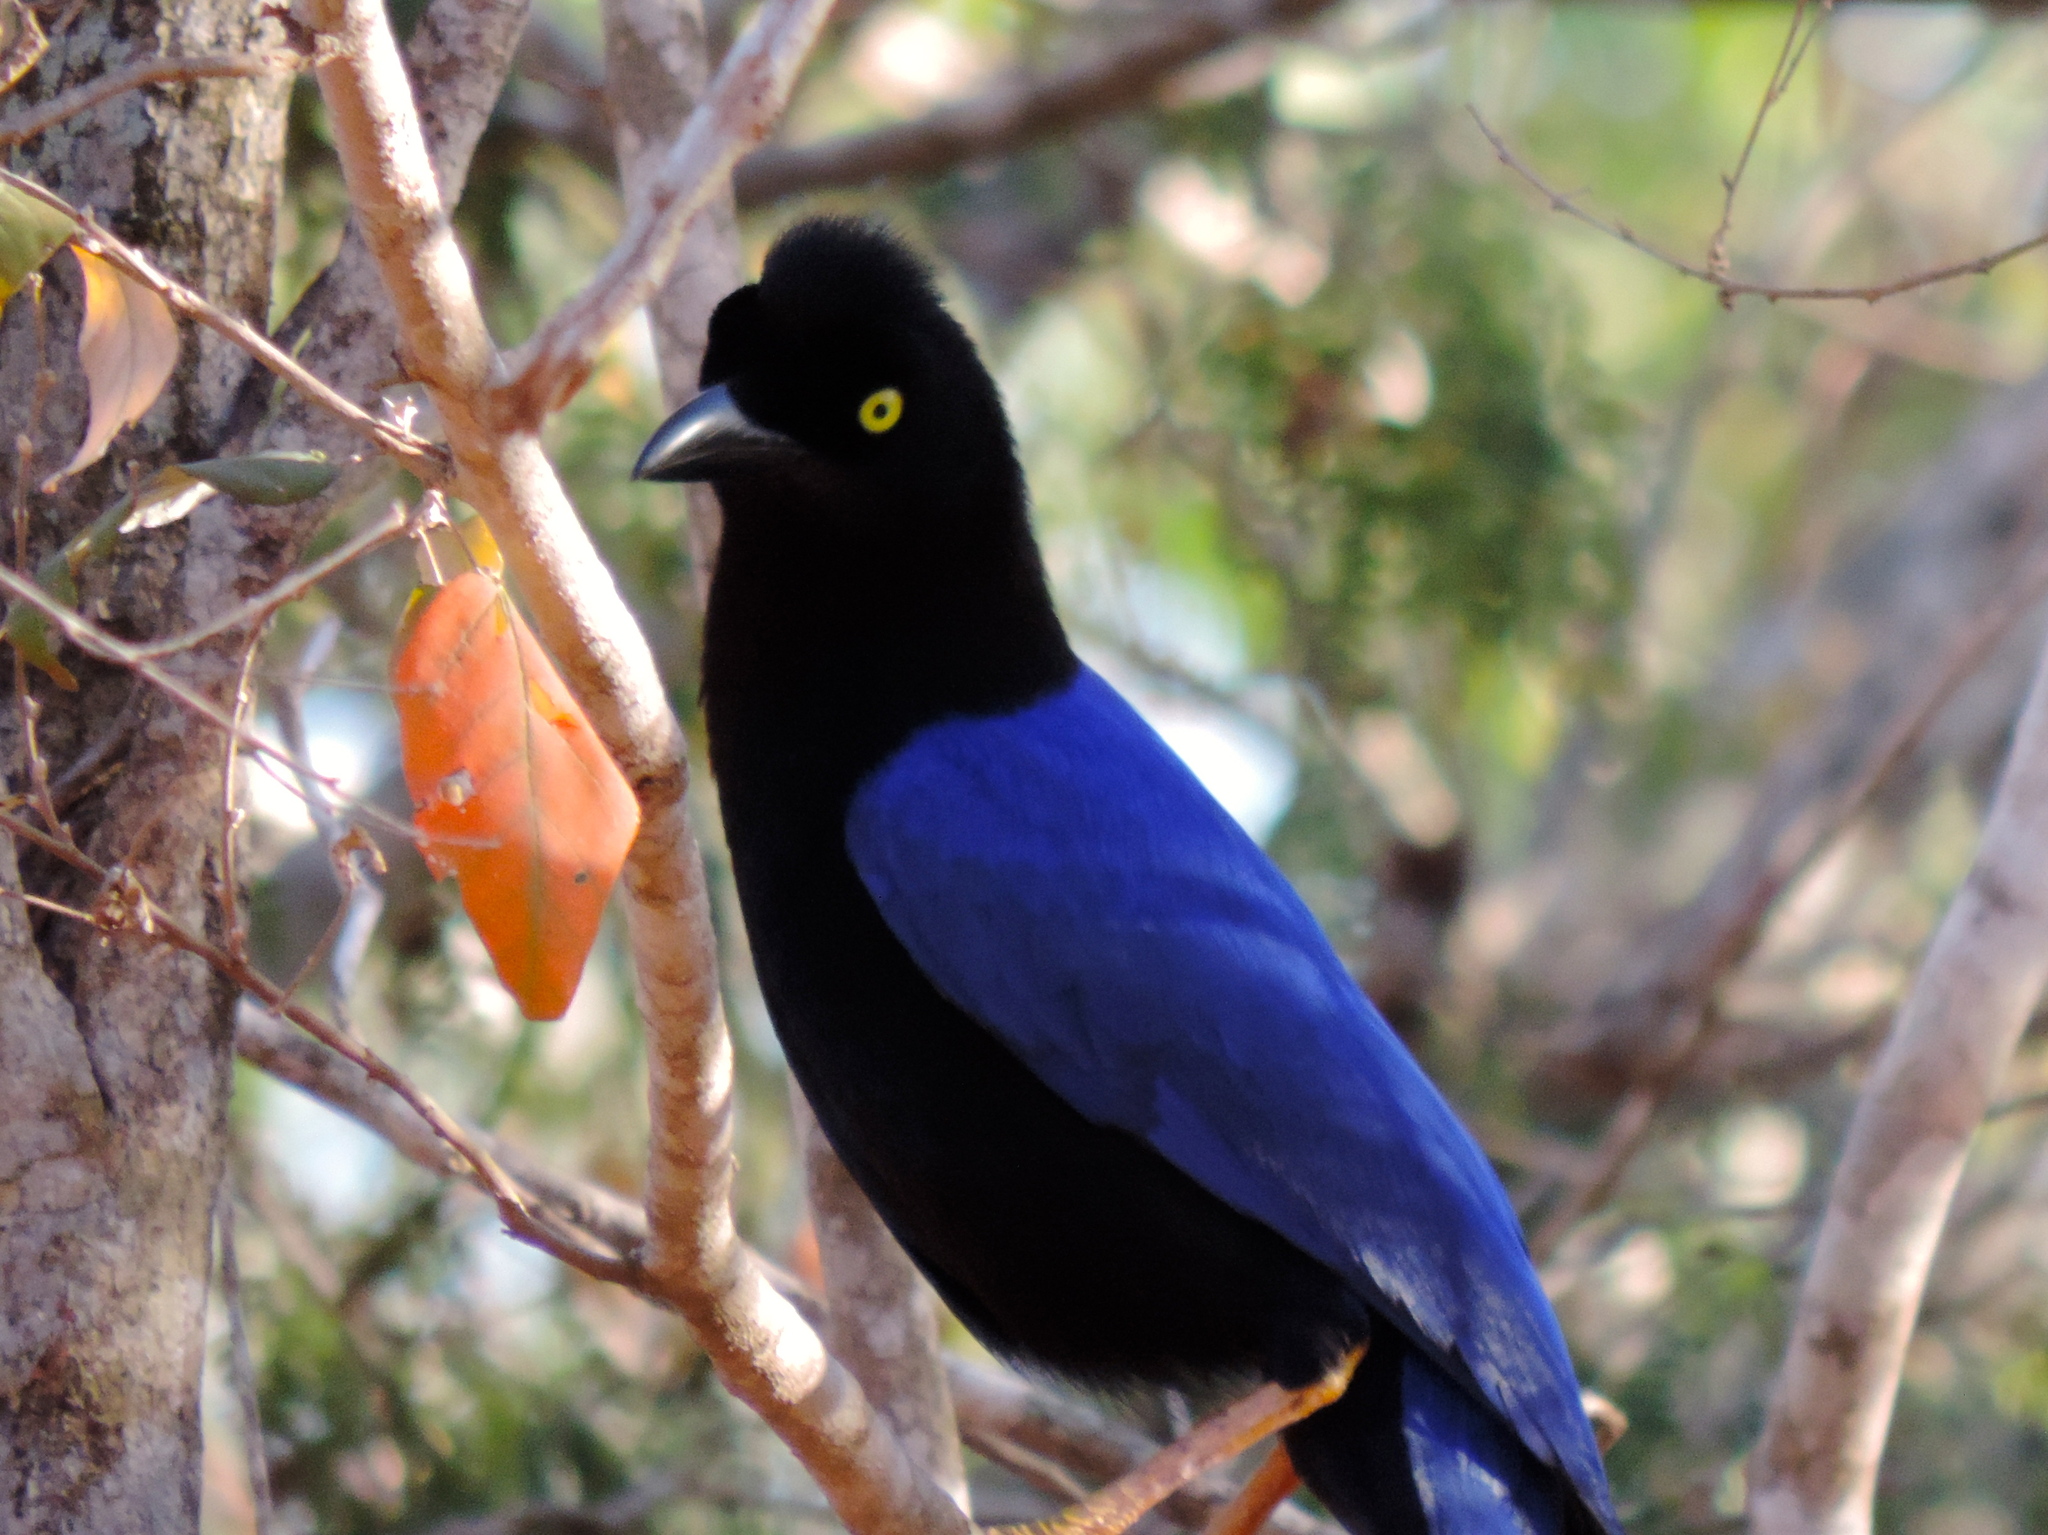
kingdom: Animalia
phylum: Chordata
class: Aves
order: Passeriformes
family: Corvidae
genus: Cyanocorax
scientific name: Cyanocorax beecheii
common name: Purplish-backed jay
